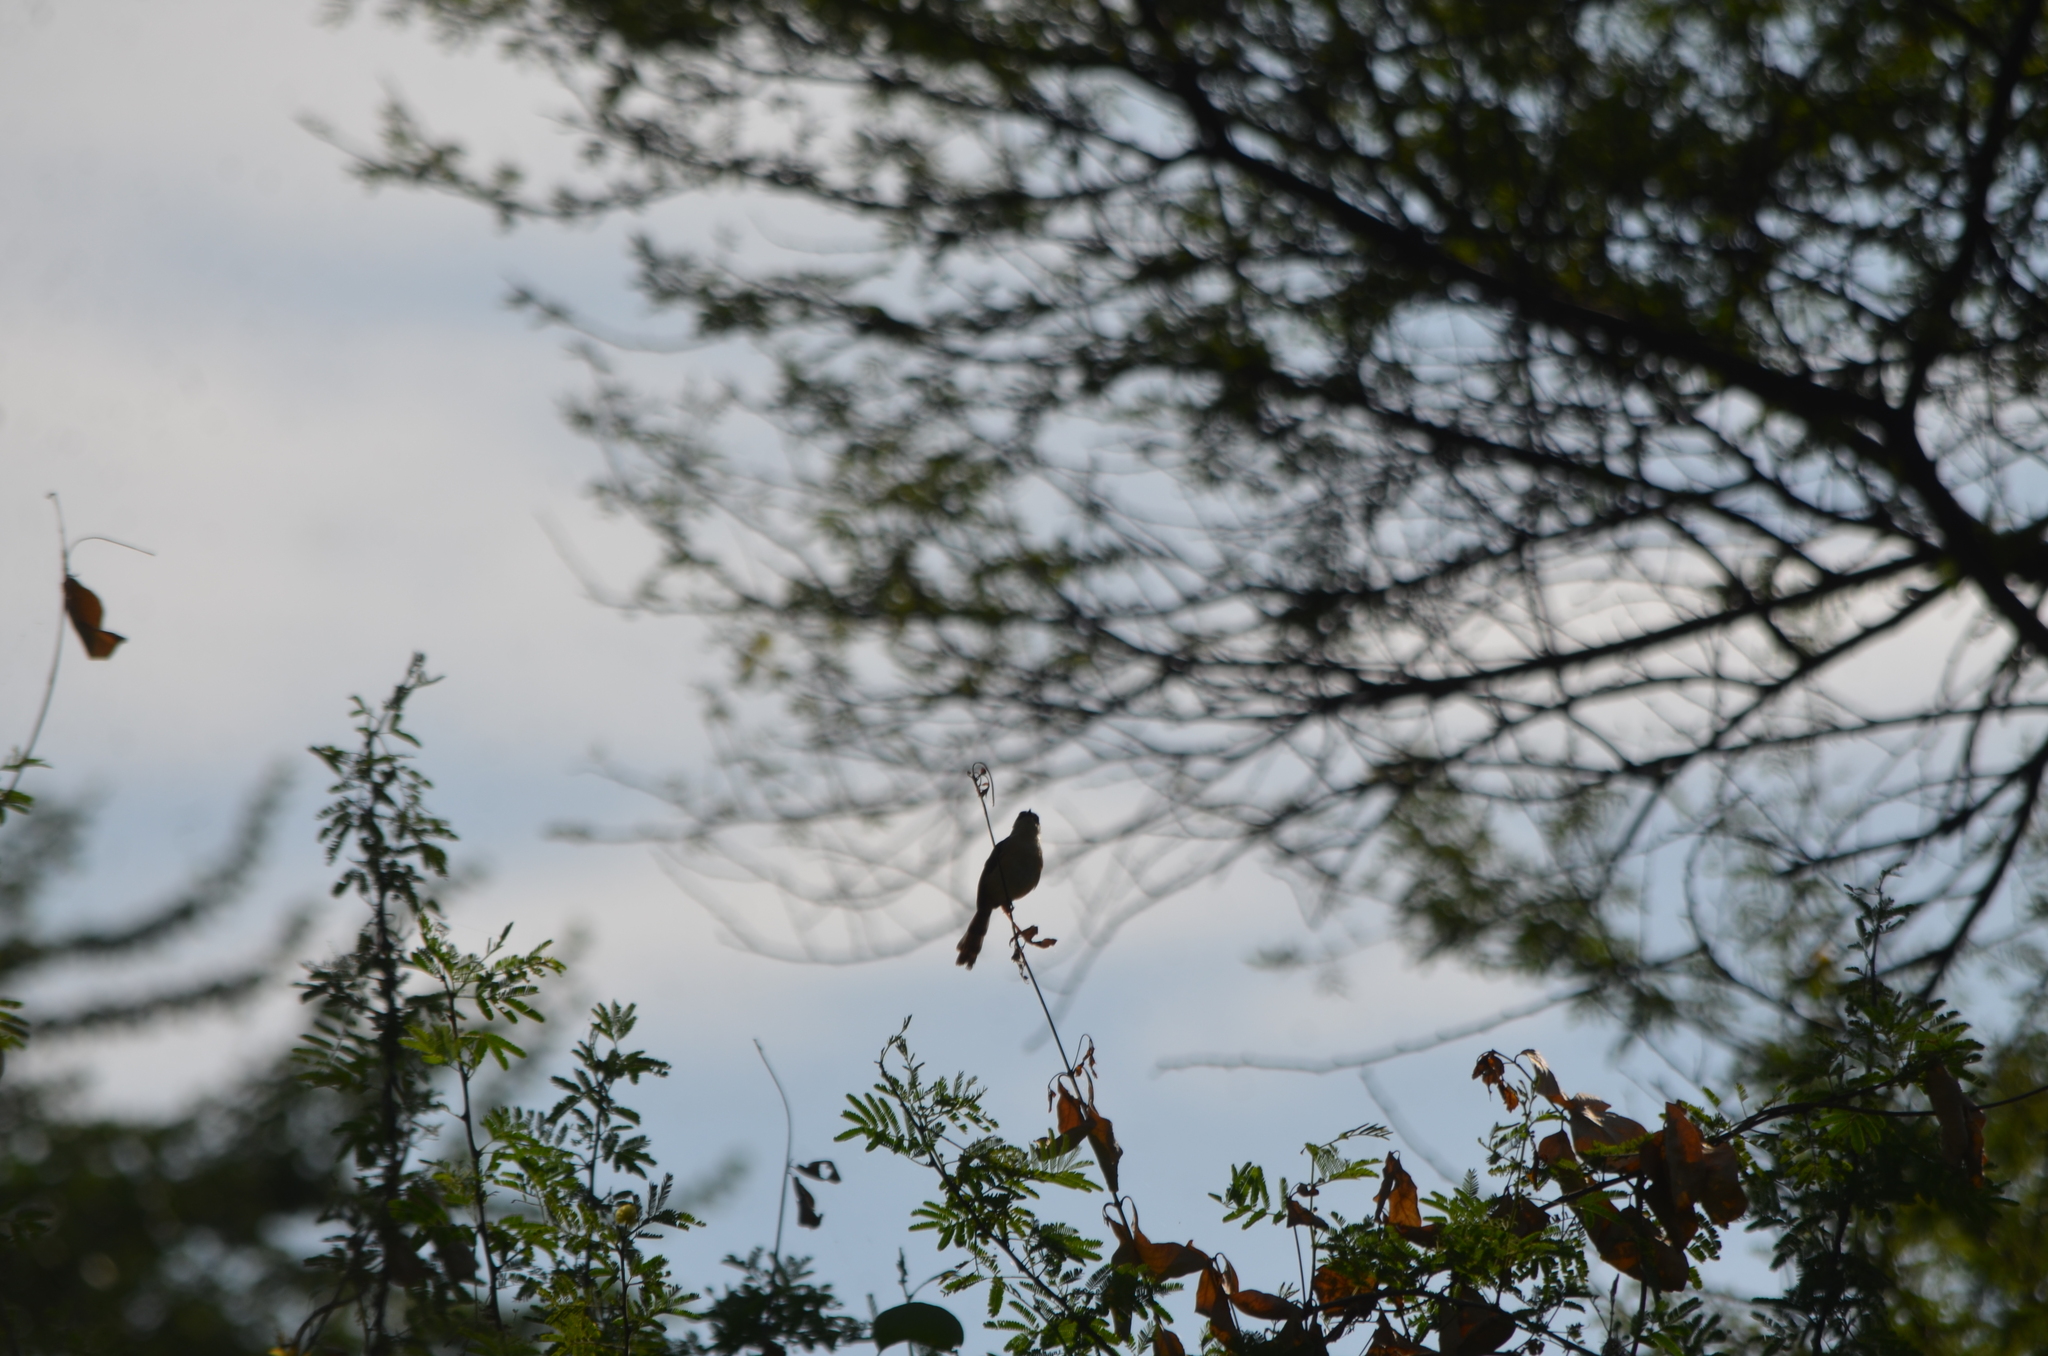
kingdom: Animalia
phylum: Chordata
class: Aves
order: Passeriformes
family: Pycnonotidae
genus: Pycnonotus
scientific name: Pycnonotus cafer
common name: Red-vented bulbul
